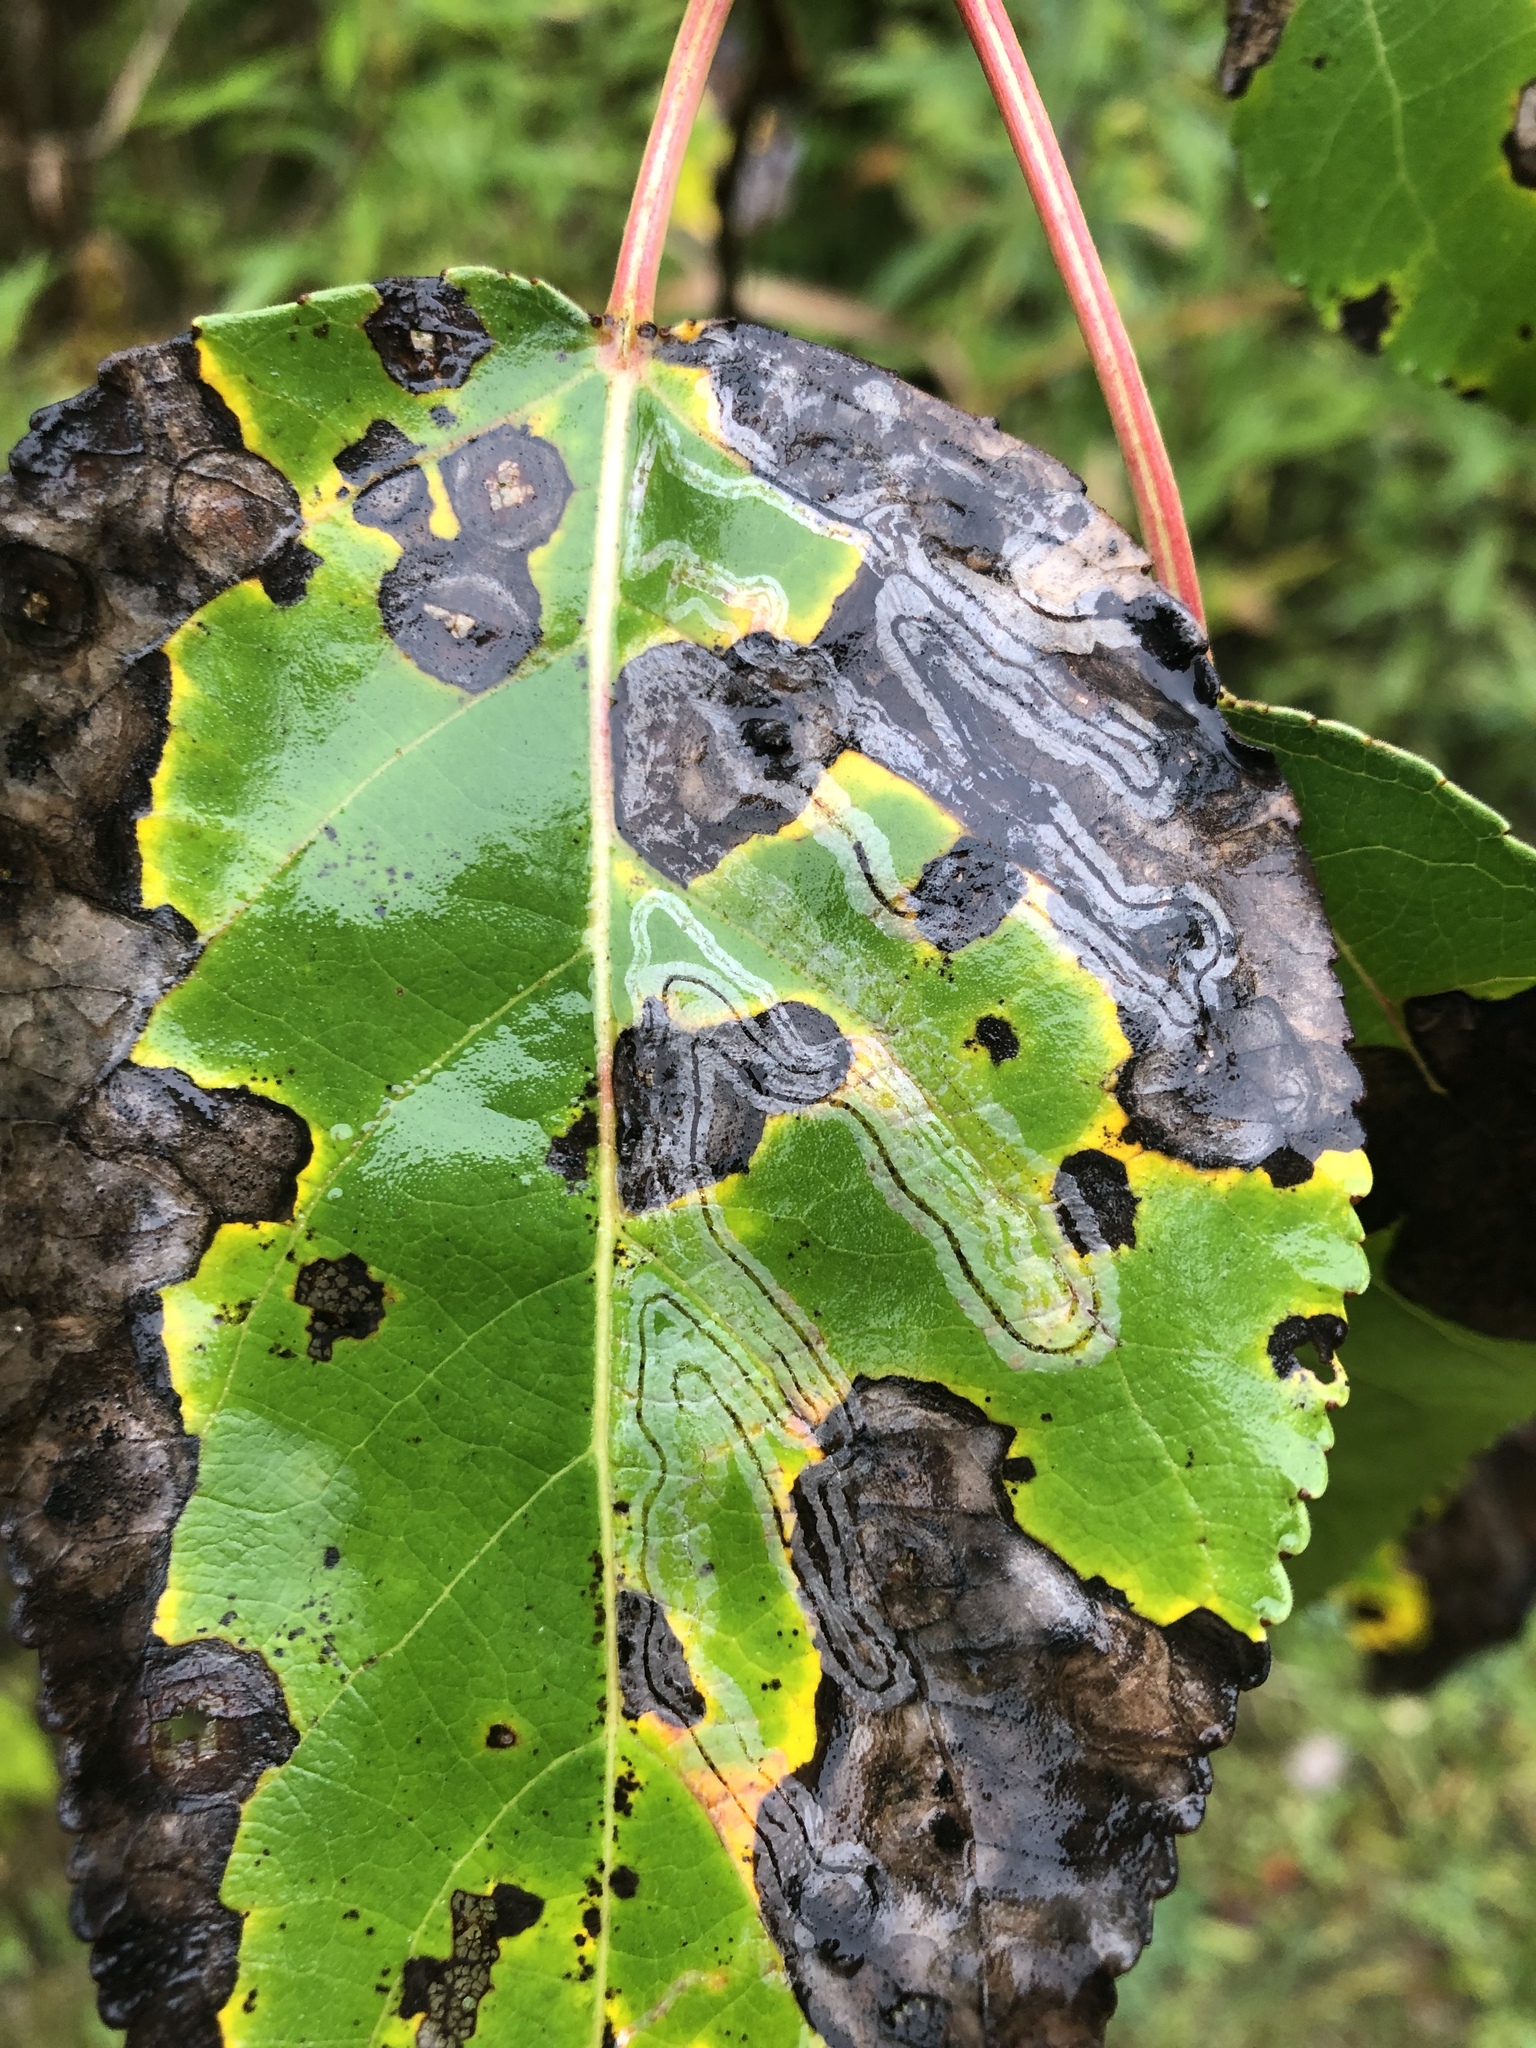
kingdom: Animalia
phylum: Arthropoda
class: Insecta
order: Lepidoptera
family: Gracillariidae
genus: Phyllocnistis
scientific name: Phyllocnistis populiella
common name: Aspen serpentine leafminer moth
